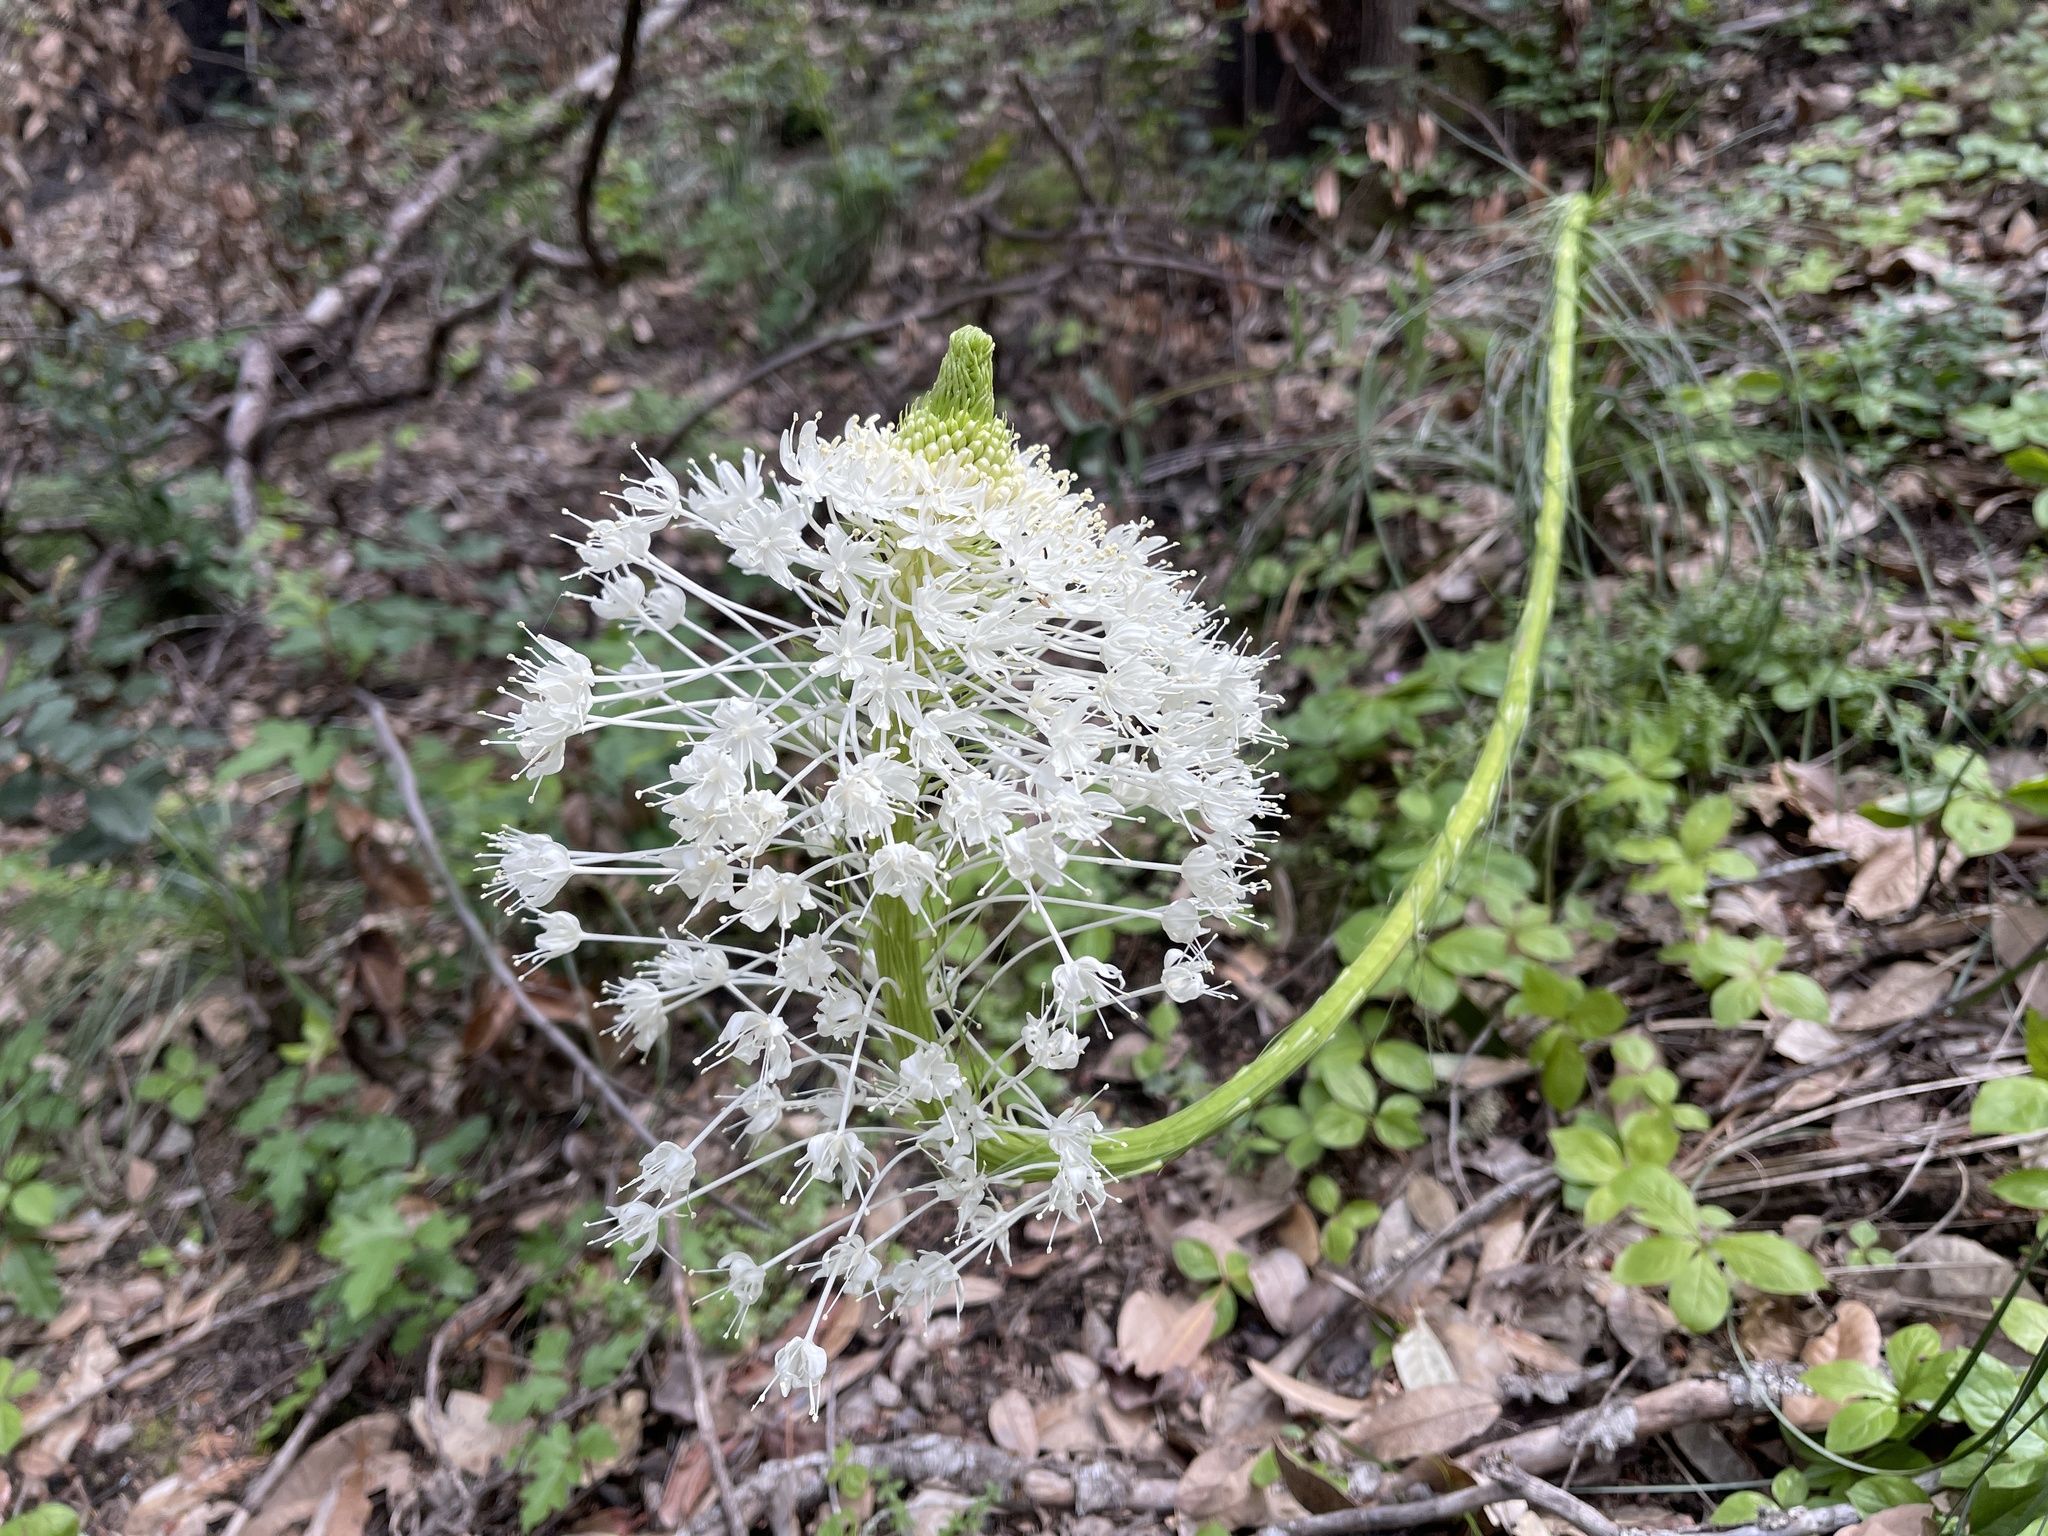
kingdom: Plantae
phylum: Tracheophyta
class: Liliopsida
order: Liliales
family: Melanthiaceae
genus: Xerophyllum
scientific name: Xerophyllum tenax
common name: Bear-grass
